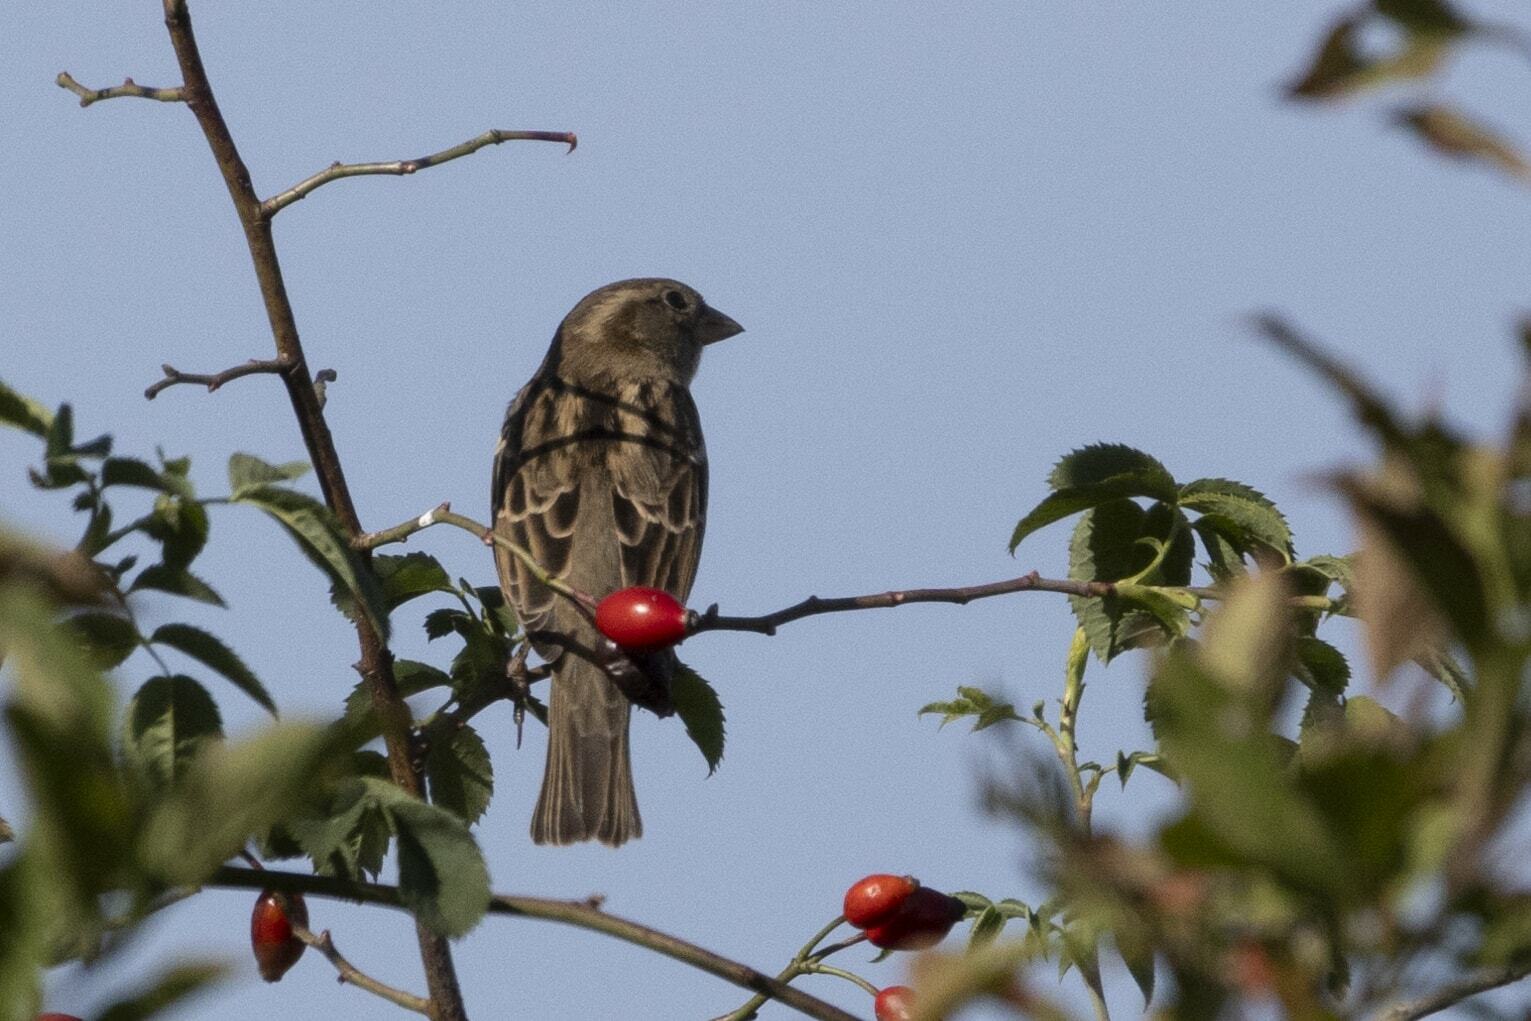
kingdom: Animalia
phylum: Chordata
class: Aves
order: Passeriformes
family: Passeridae
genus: Passer
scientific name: Passer domesticus
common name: House sparrow
